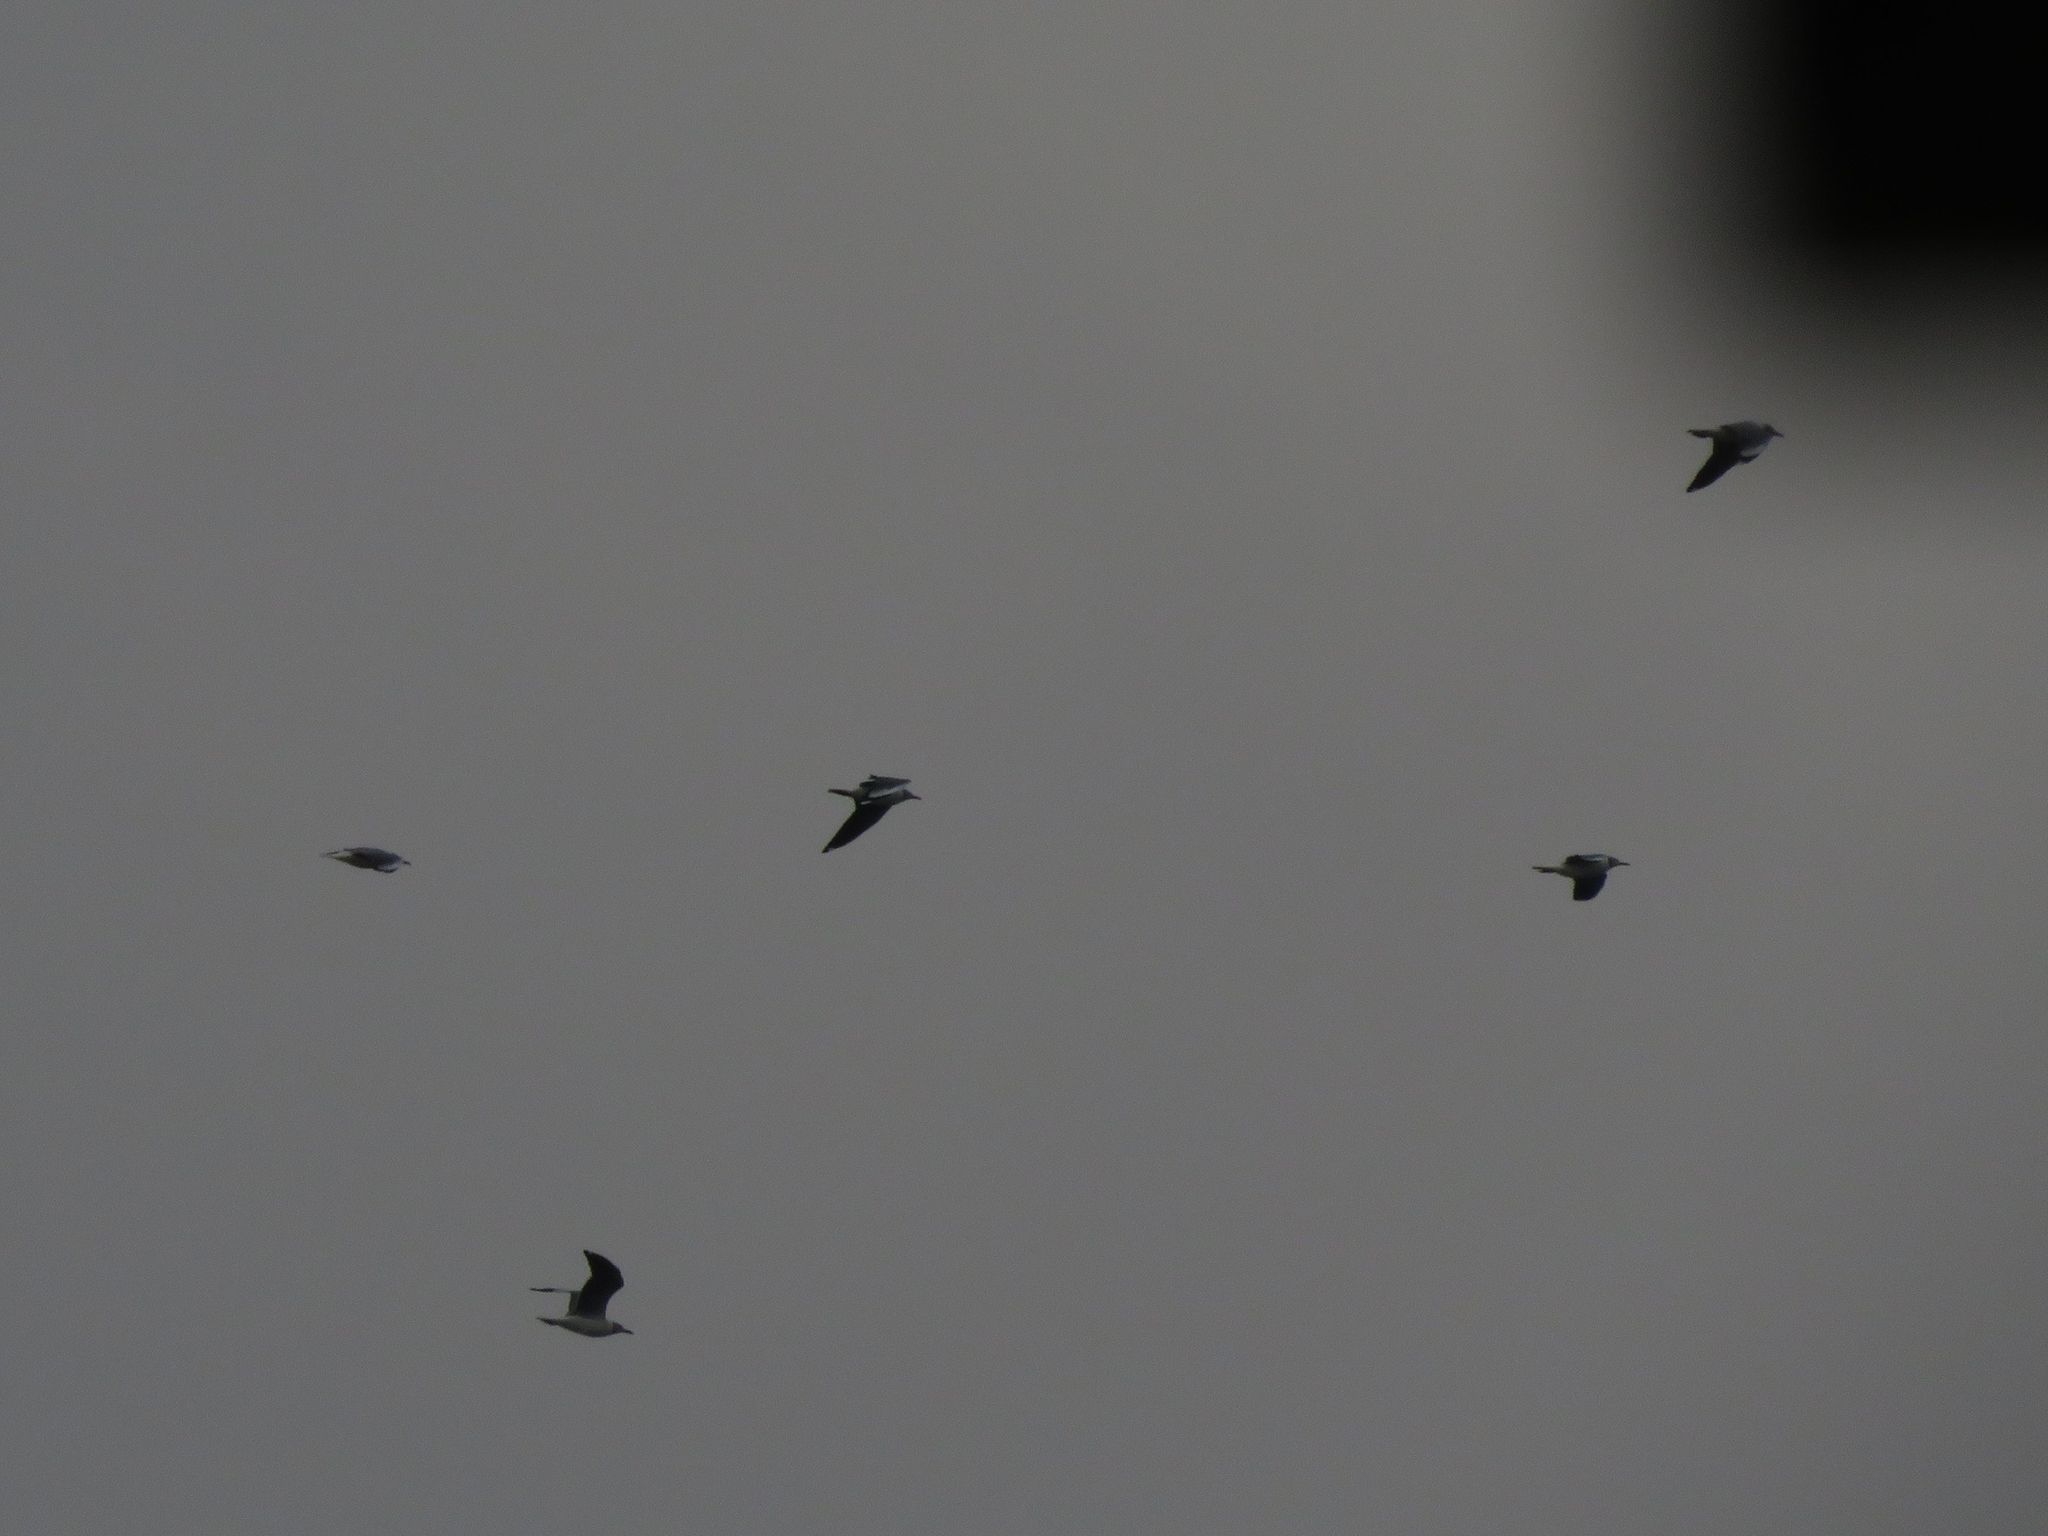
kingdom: Animalia
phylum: Chordata
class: Aves
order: Charadriiformes
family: Laridae
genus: Chroicocephalus
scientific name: Chroicocephalus cirrocephalus
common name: Grey-headed gull
